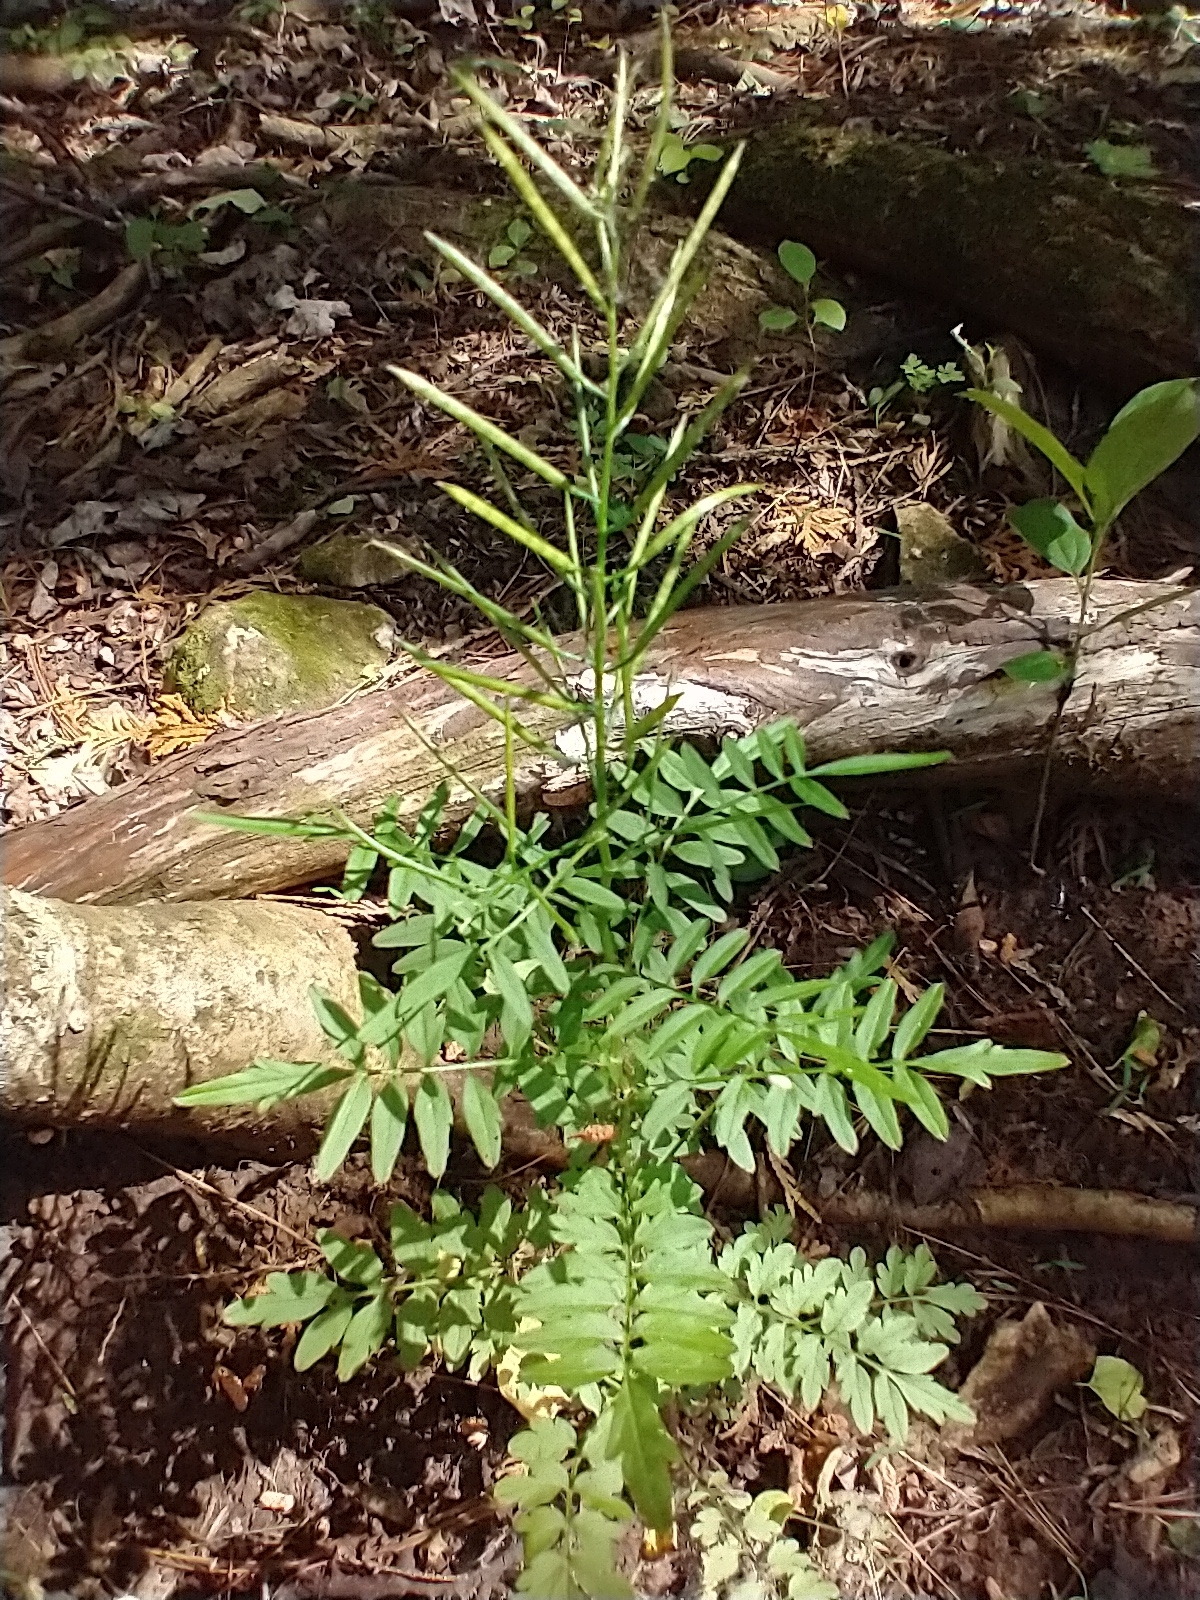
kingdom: Plantae
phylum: Tracheophyta
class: Magnoliopsida
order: Brassicales
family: Brassicaceae
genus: Cardamine
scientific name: Cardamine impatiens
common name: Narrow-leaved bitter-cress
